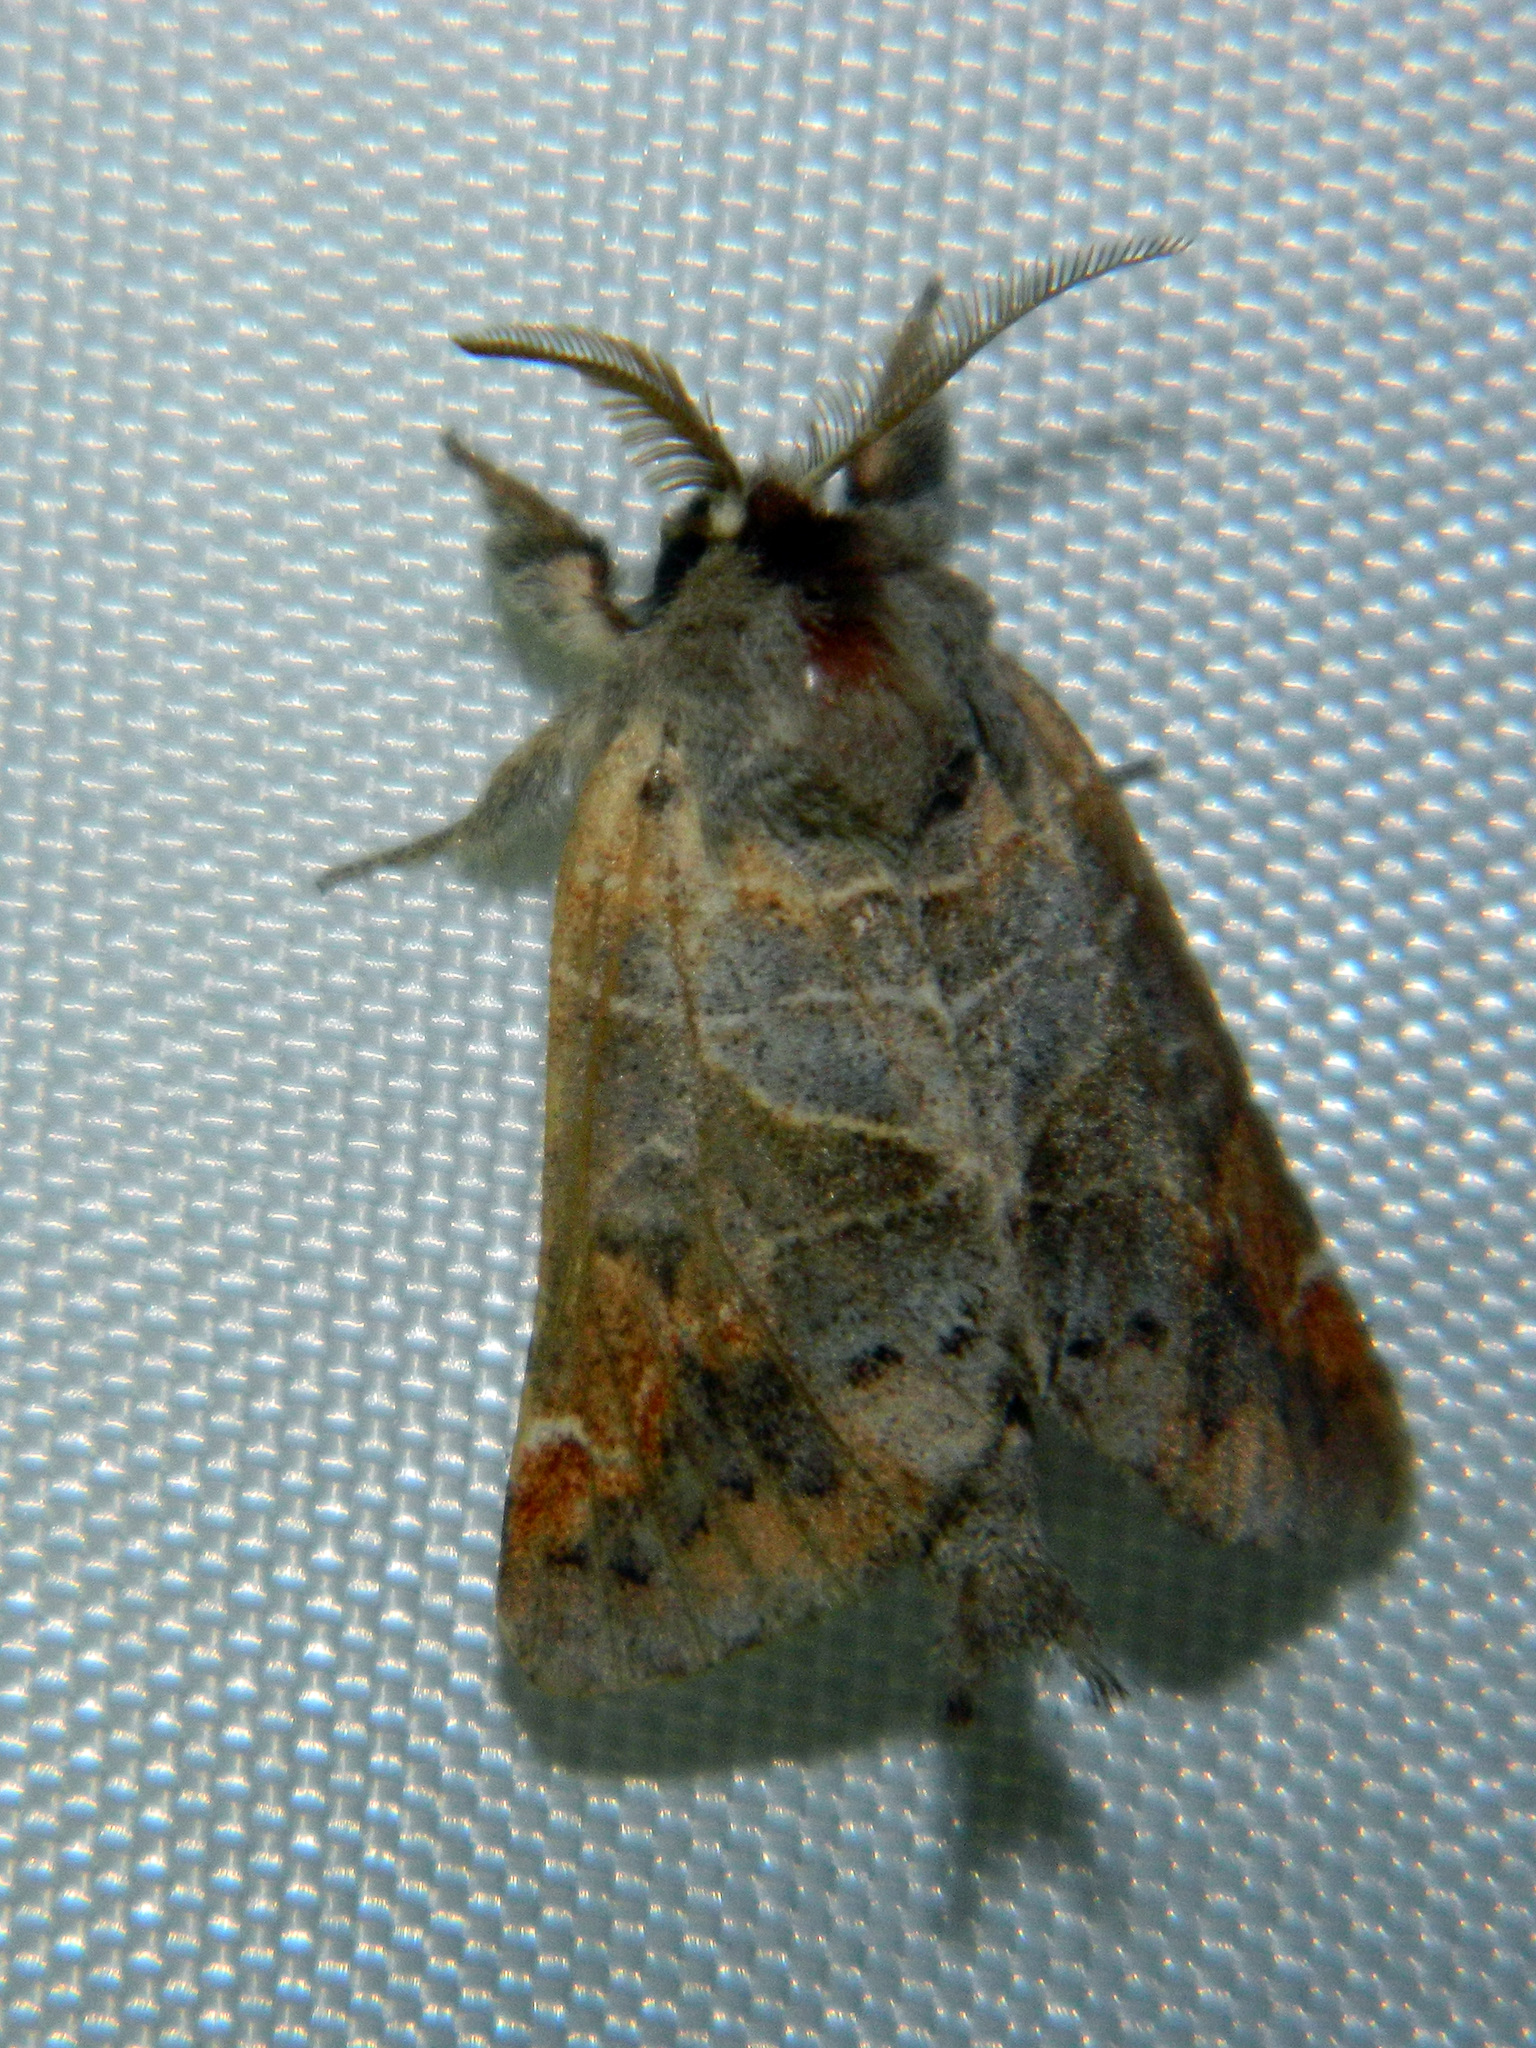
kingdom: Animalia
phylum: Arthropoda
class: Insecta
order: Lepidoptera
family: Notodontidae
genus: Clostera
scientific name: Clostera apicalis
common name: Apical prominent
